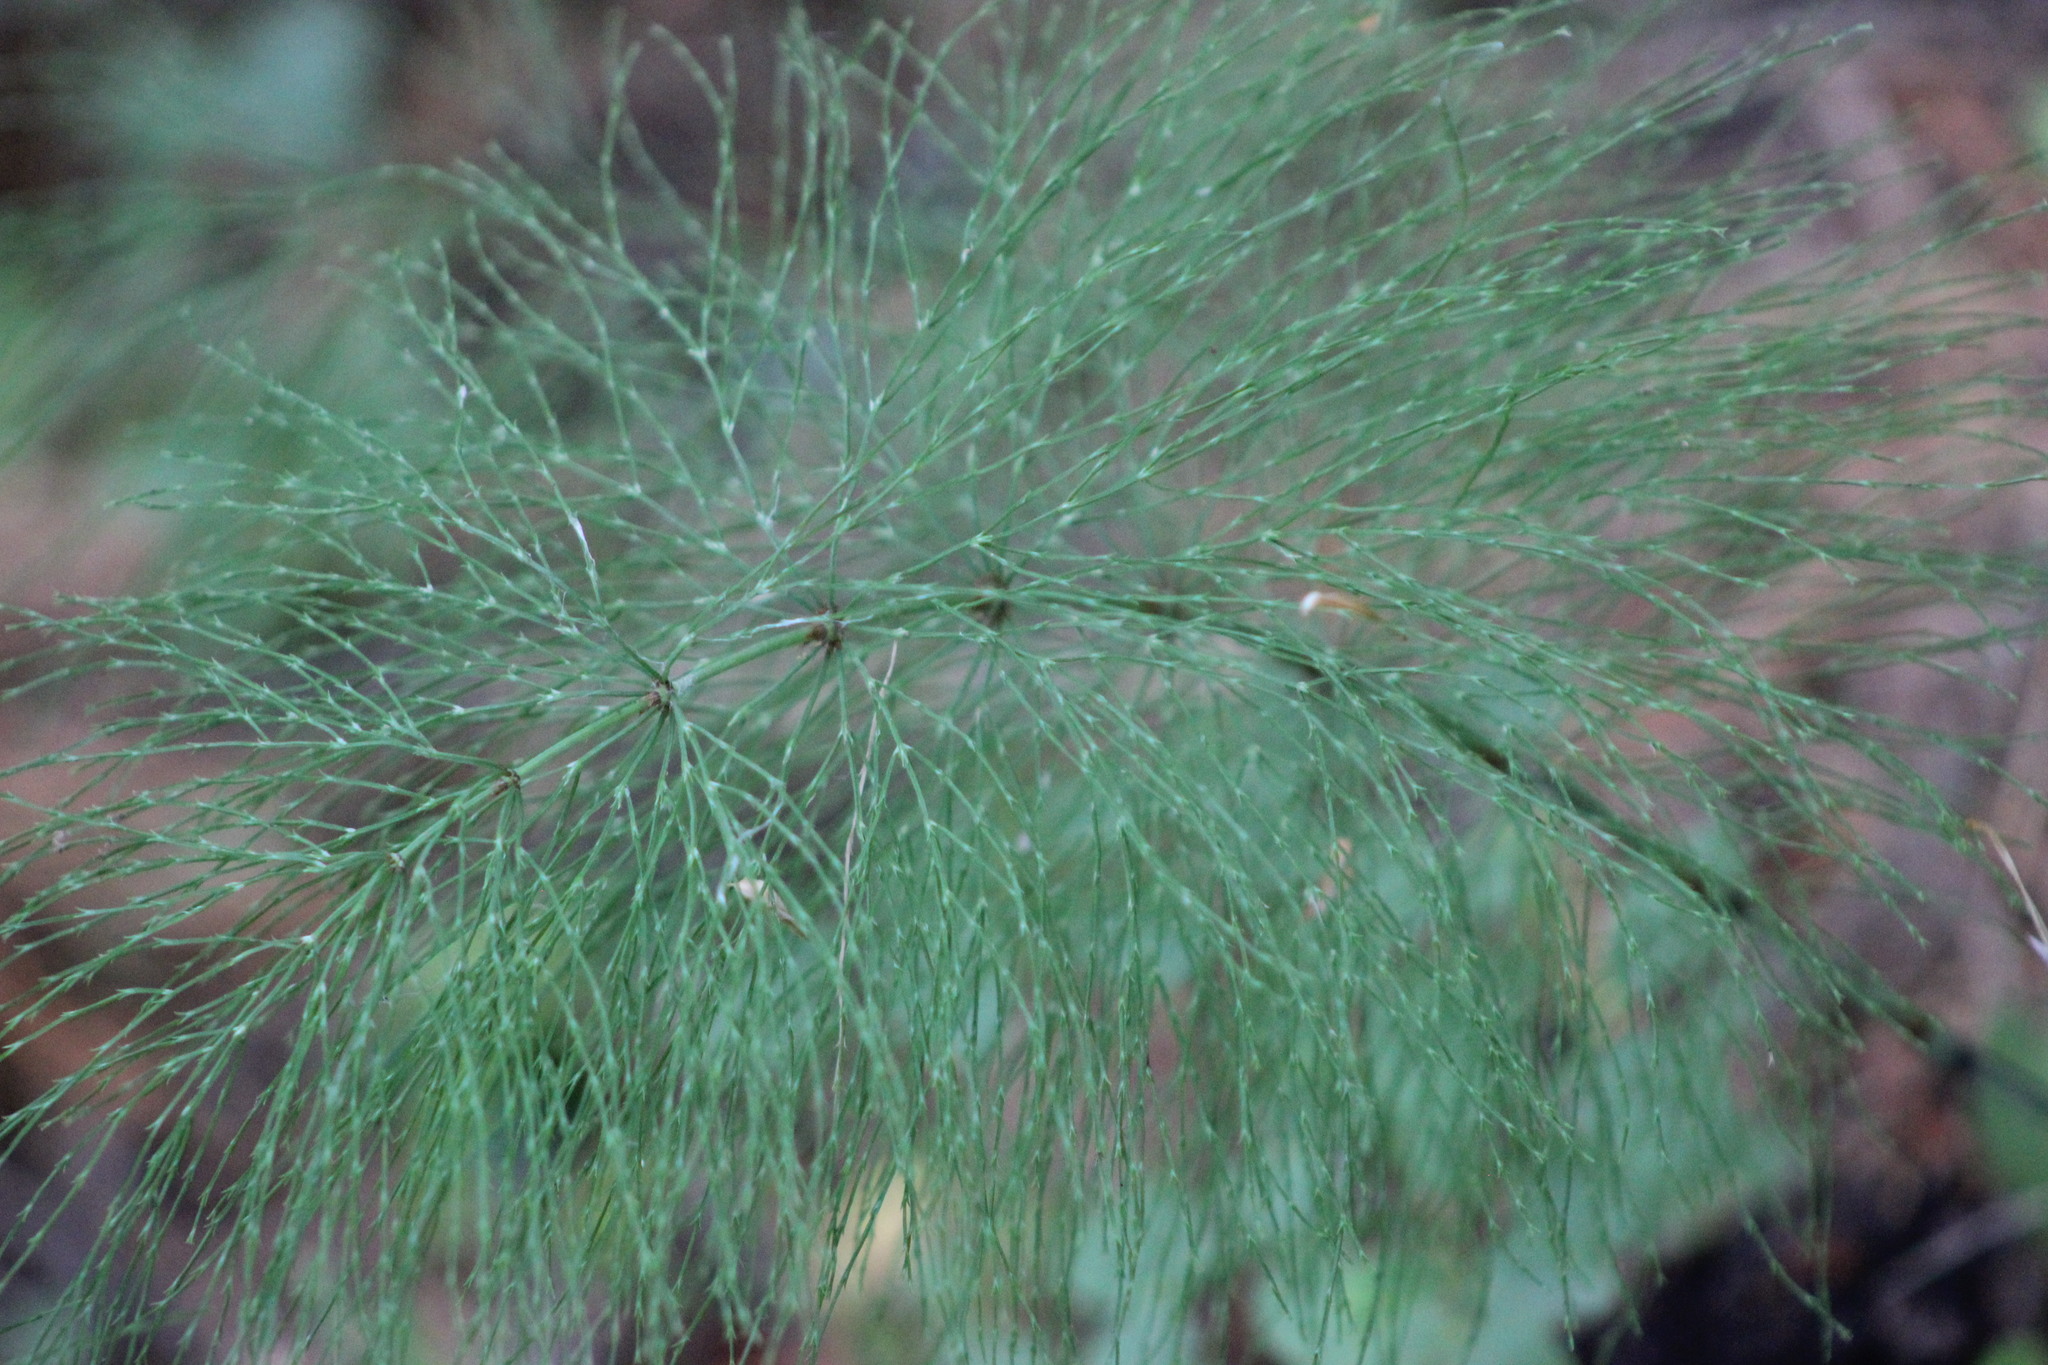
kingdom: Plantae
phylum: Tracheophyta
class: Polypodiopsida
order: Equisetales
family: Equisetaceae
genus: Equisetum
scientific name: Equisetum sylvaticum
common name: Wood horsetail
